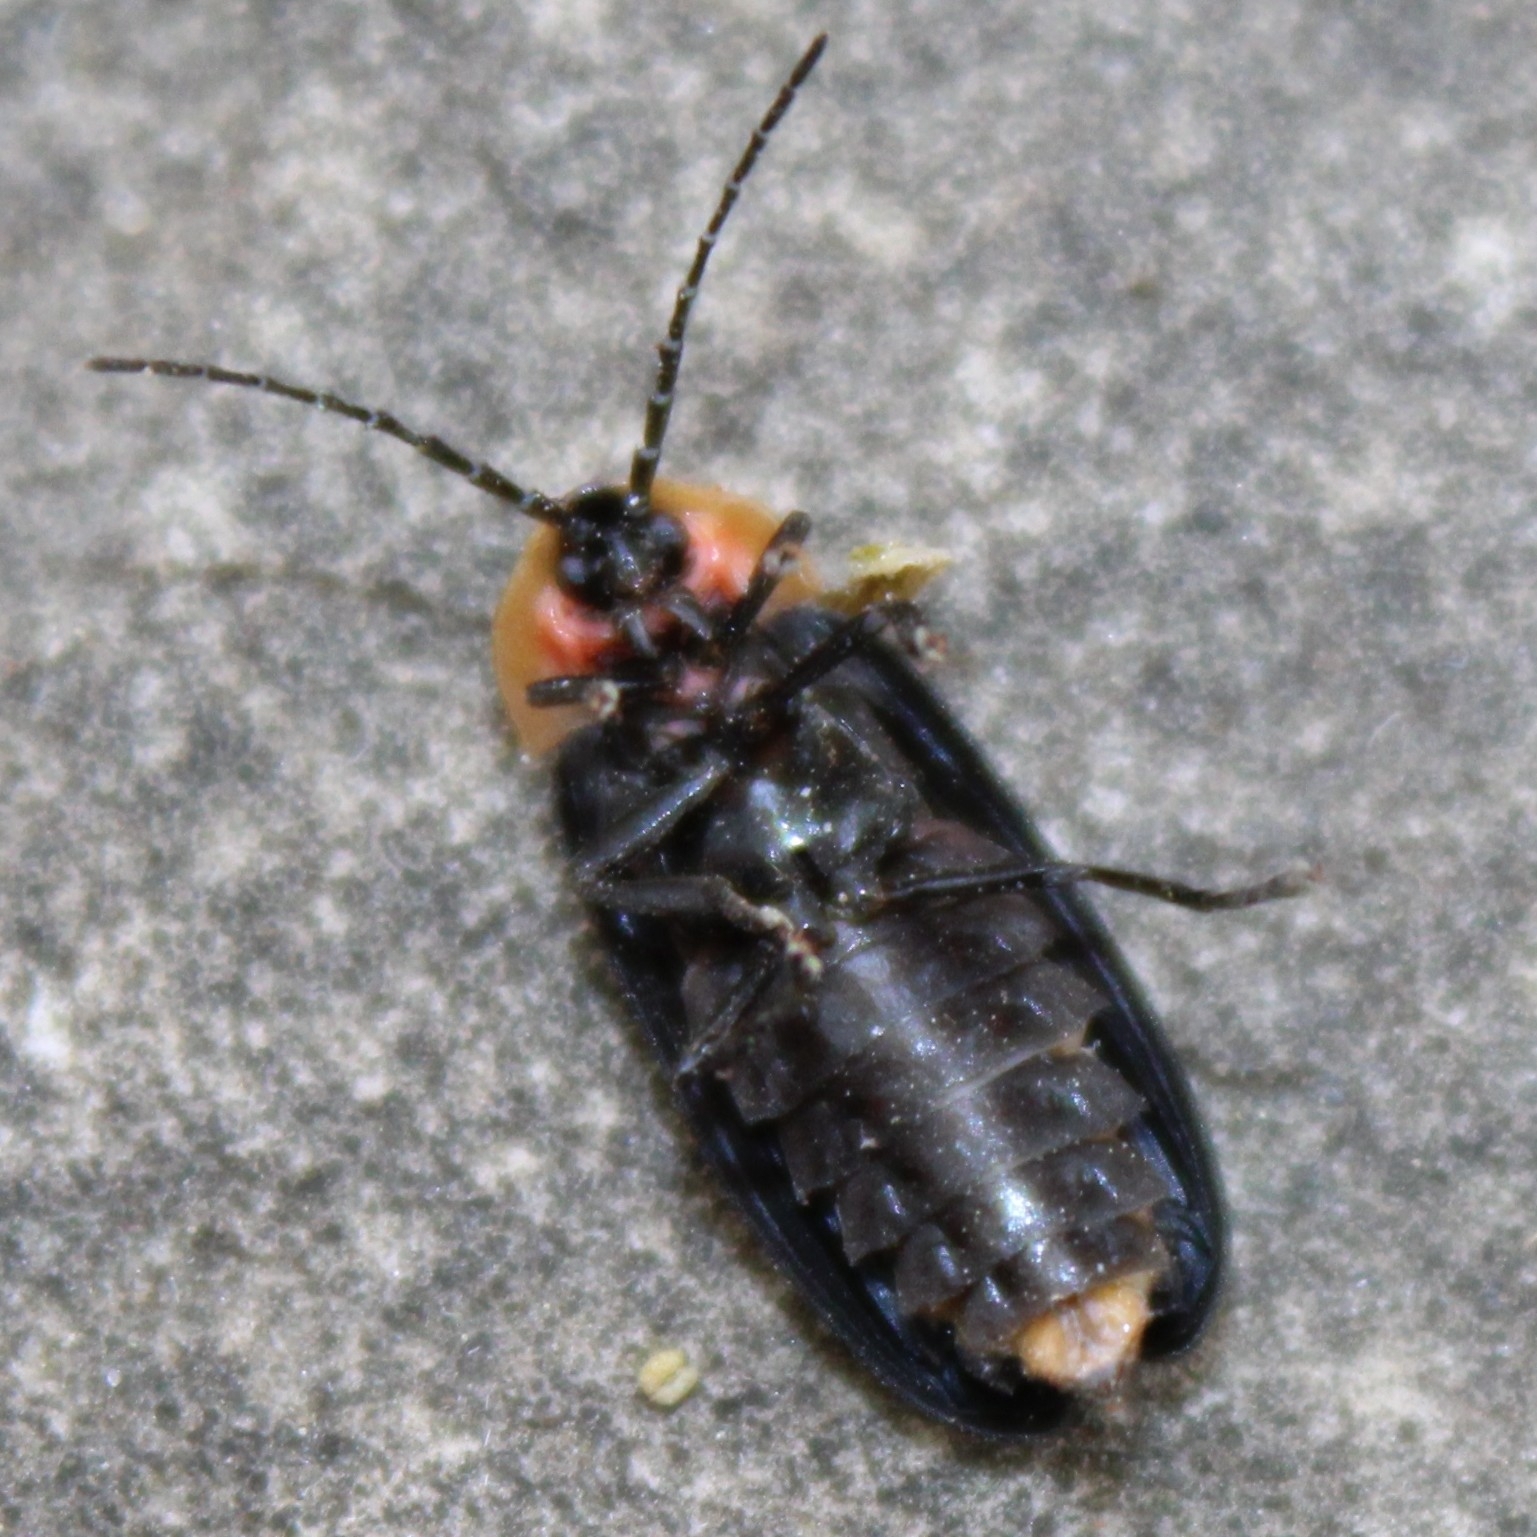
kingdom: Animalia
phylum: Arthropoda
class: Insecta
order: Coleoptera
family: Lampyridae
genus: Lucidota
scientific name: Lucidota atra
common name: Black firefly
